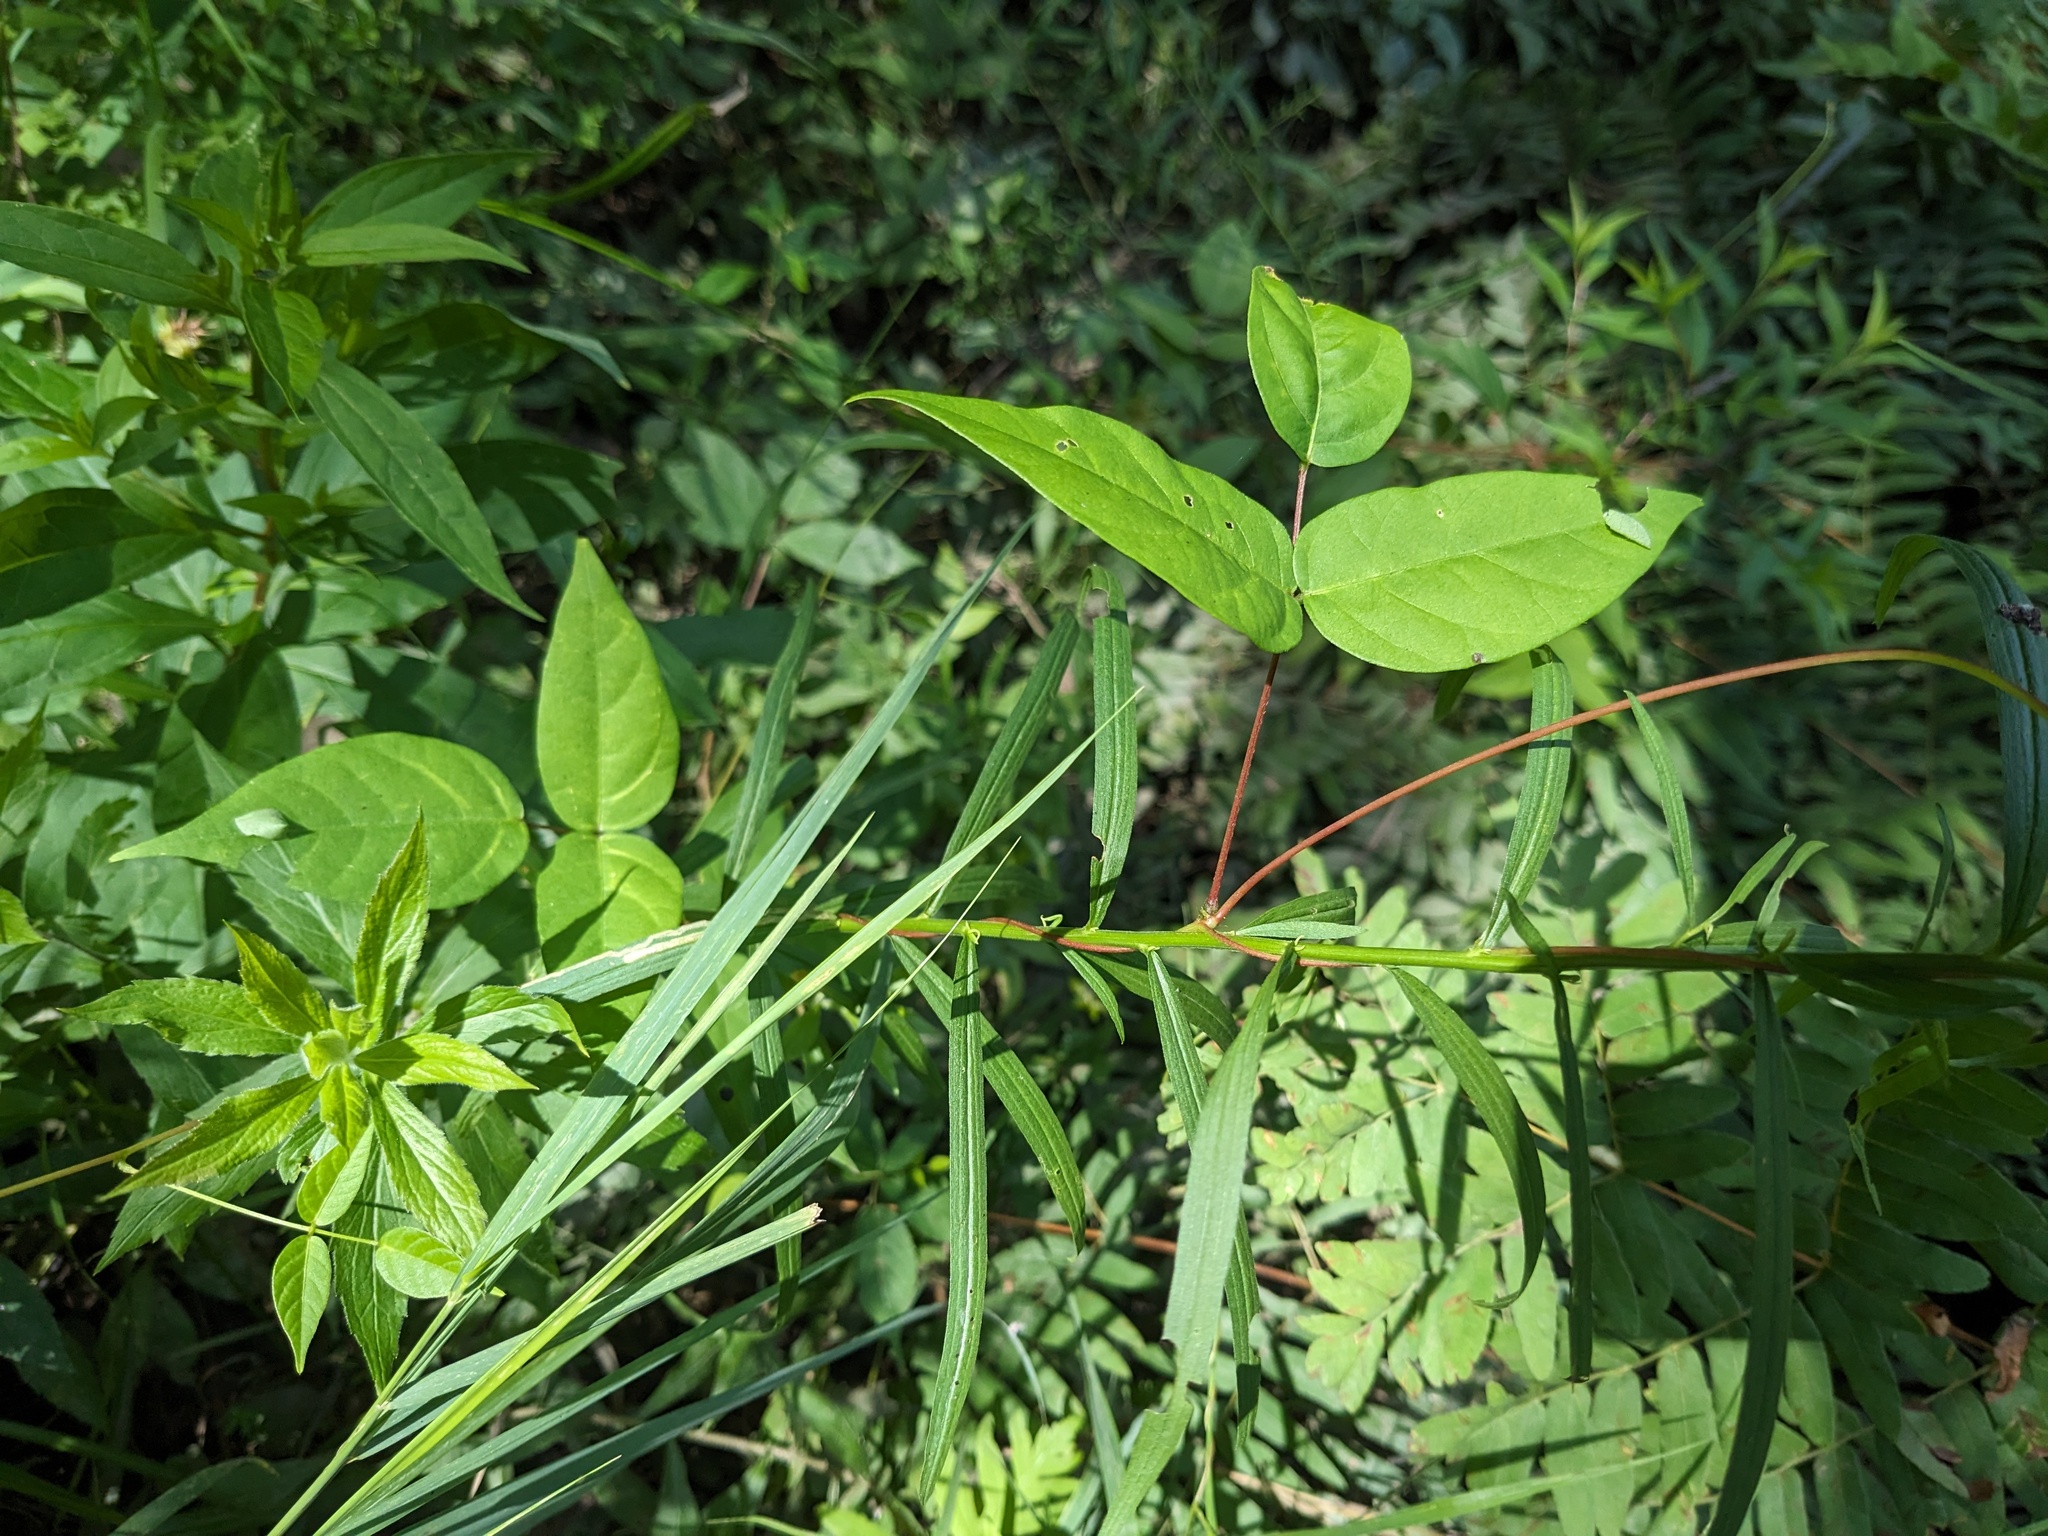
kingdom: Plantae
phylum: Tracheophyta
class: Magnoliopsida
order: Fabales
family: Fabaceae
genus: Apios
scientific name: Apios americana
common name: American potato-bean
